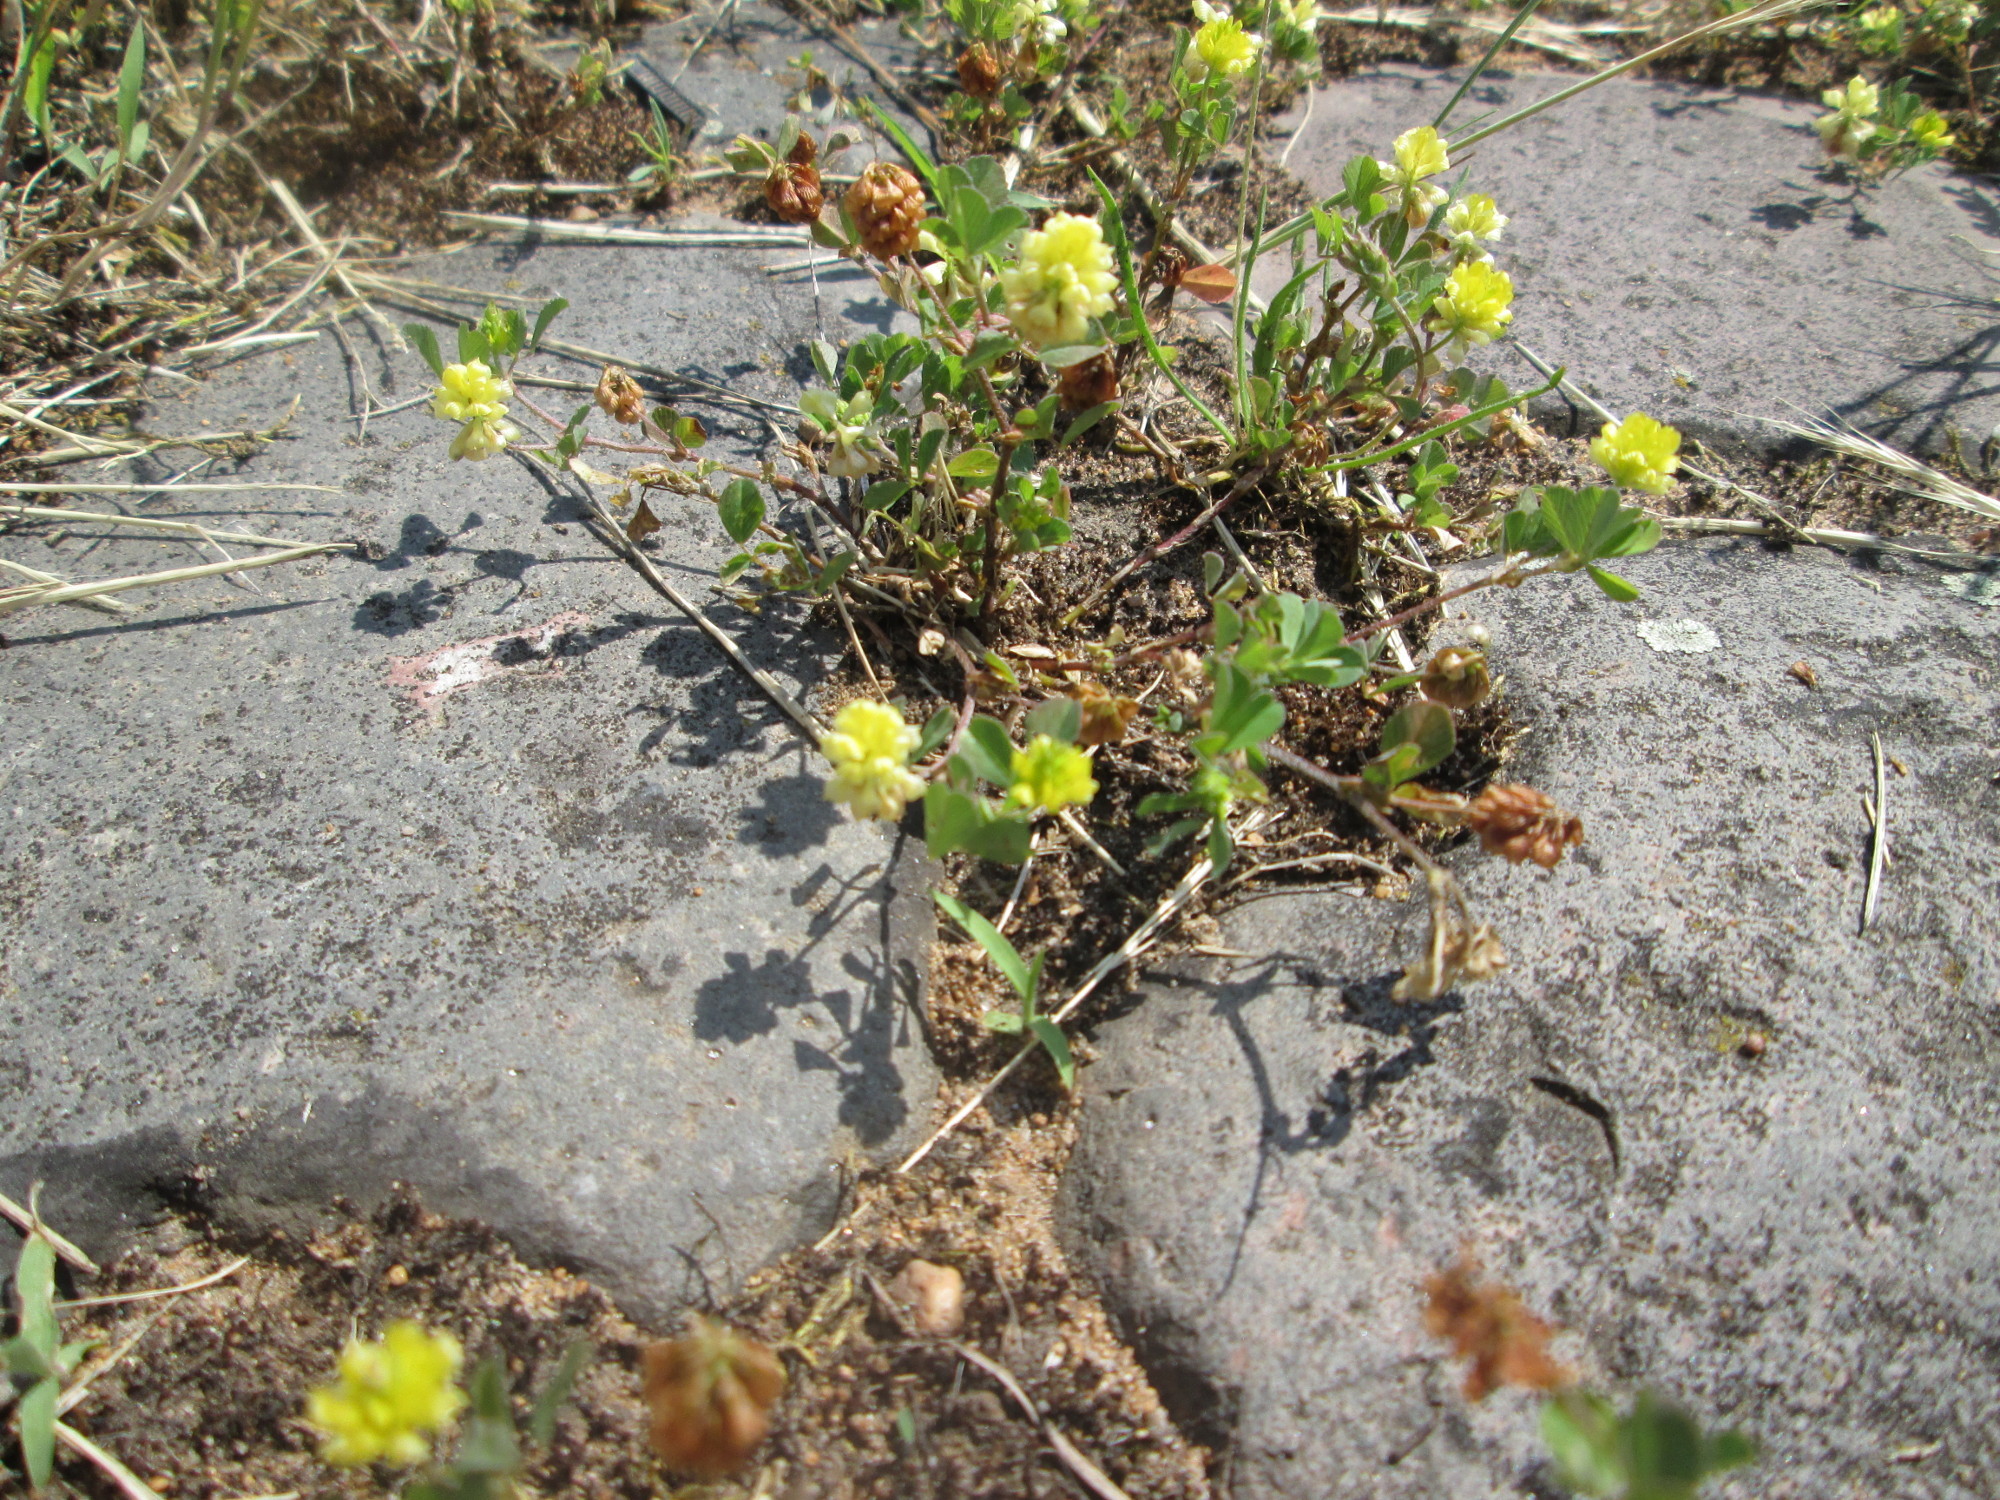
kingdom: Plantae
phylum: Tracheophyta
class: Magnoliopsida
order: Fabales
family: Fabaceae
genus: Trifolium
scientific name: Trifolium campestre
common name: Field clover
